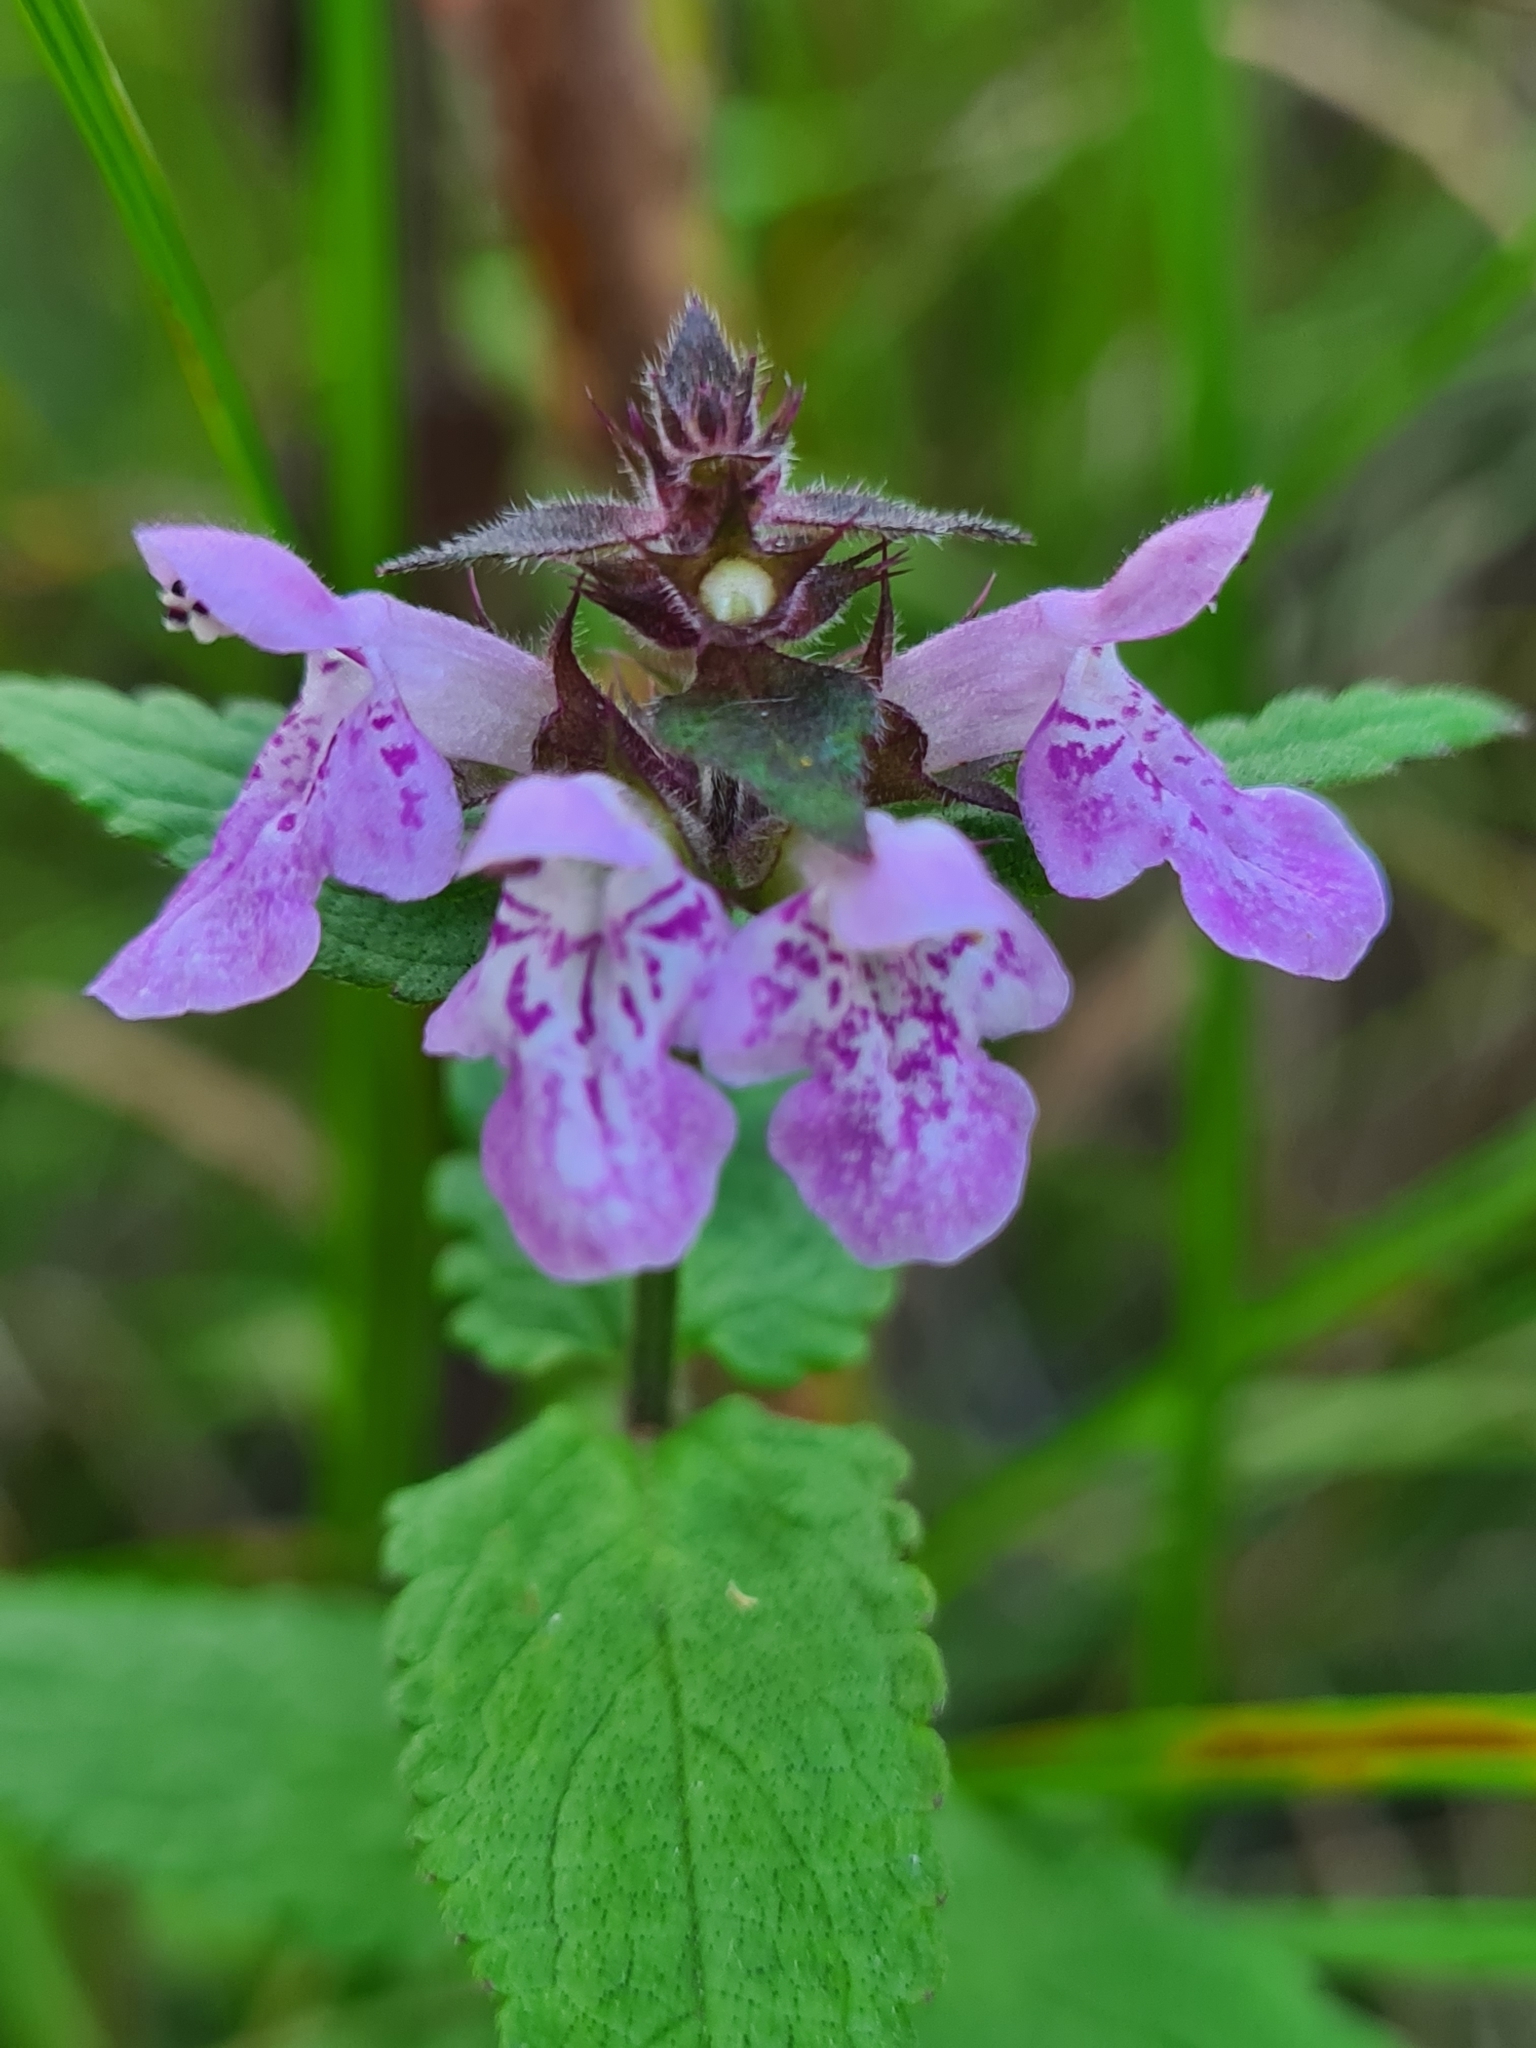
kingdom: Plantae
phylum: Tracheophyta
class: Magnoliopsida
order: Lamiales
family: Lamiaceae
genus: Stachys
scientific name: Stachys palustris
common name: Marsh woundwort
